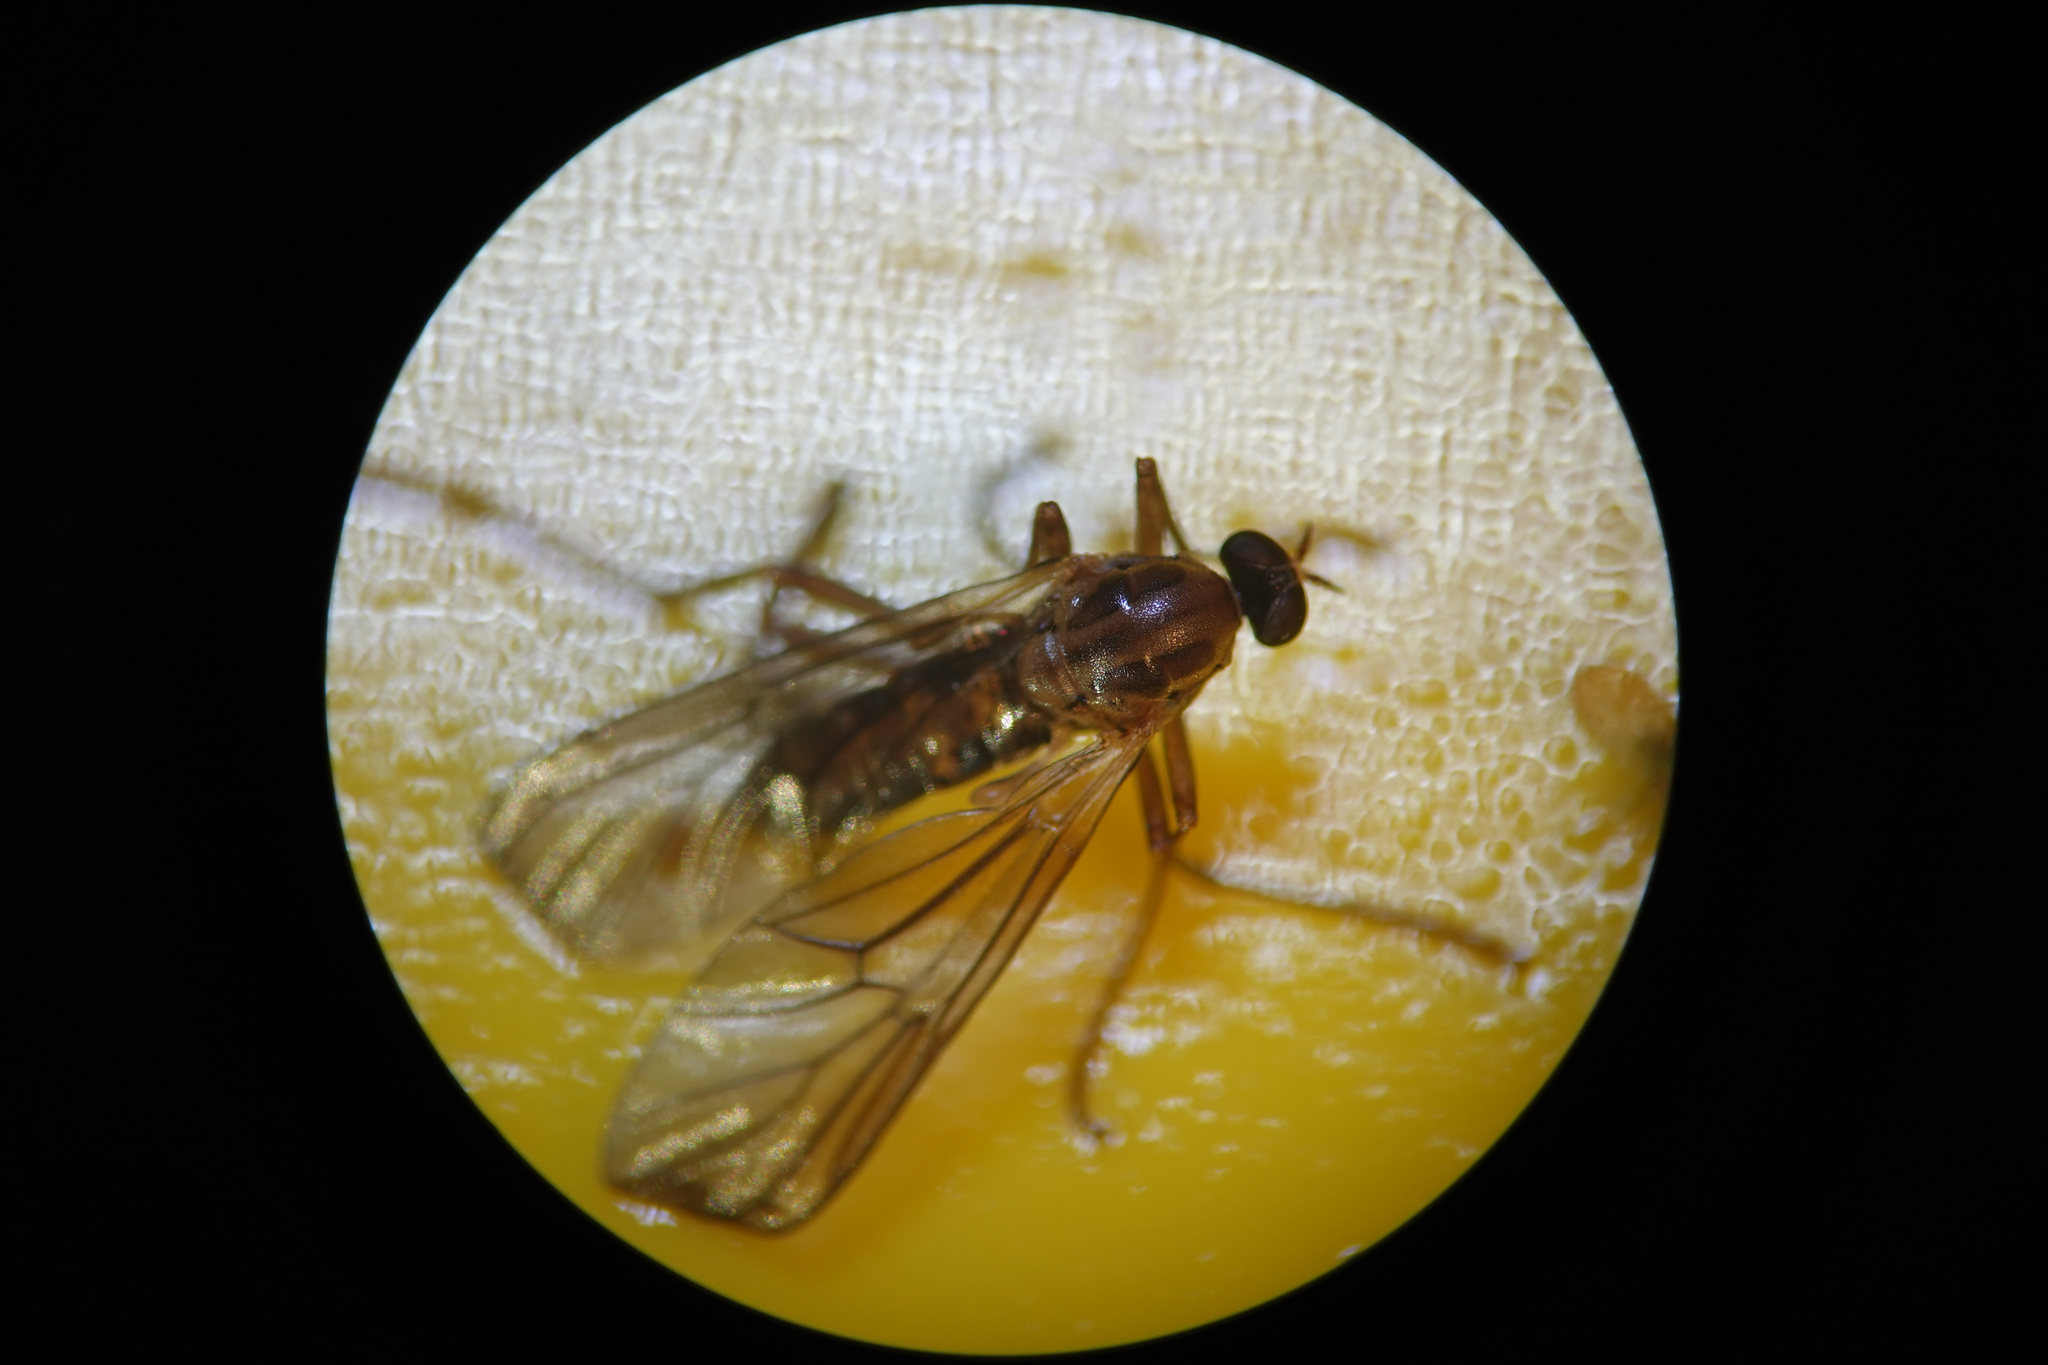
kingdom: Animalia
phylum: Arthropoda
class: Insecta
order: Diptera
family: Stratiomyidae
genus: Boreoides
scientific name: Boreoides tasmaniensis
